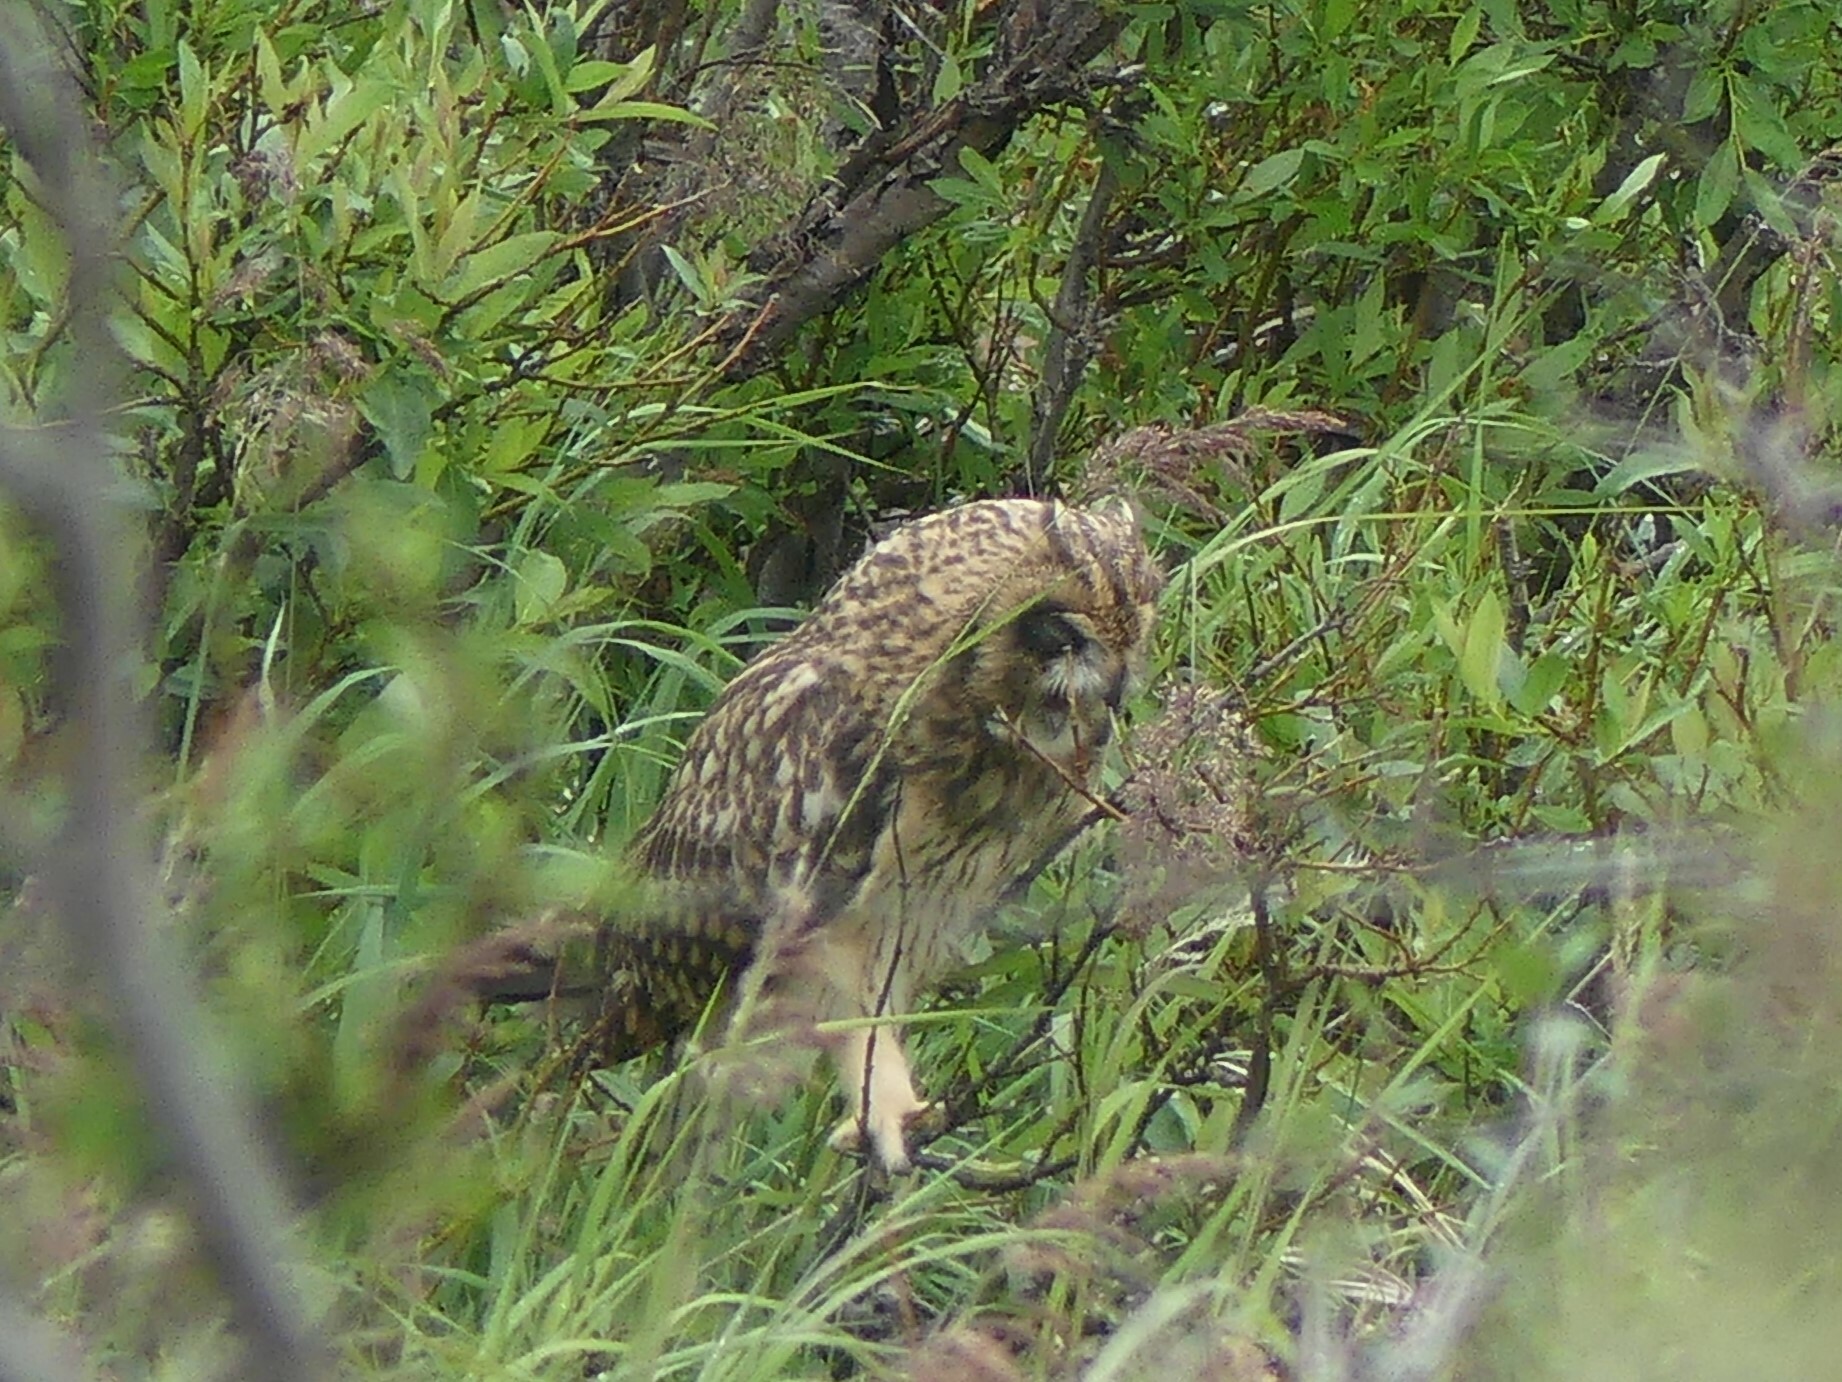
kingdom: Animalia
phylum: Chordata
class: Aves
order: Strigiformes
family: Strigidae
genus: Asio
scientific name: Asio flammeus
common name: Short-eared owl
